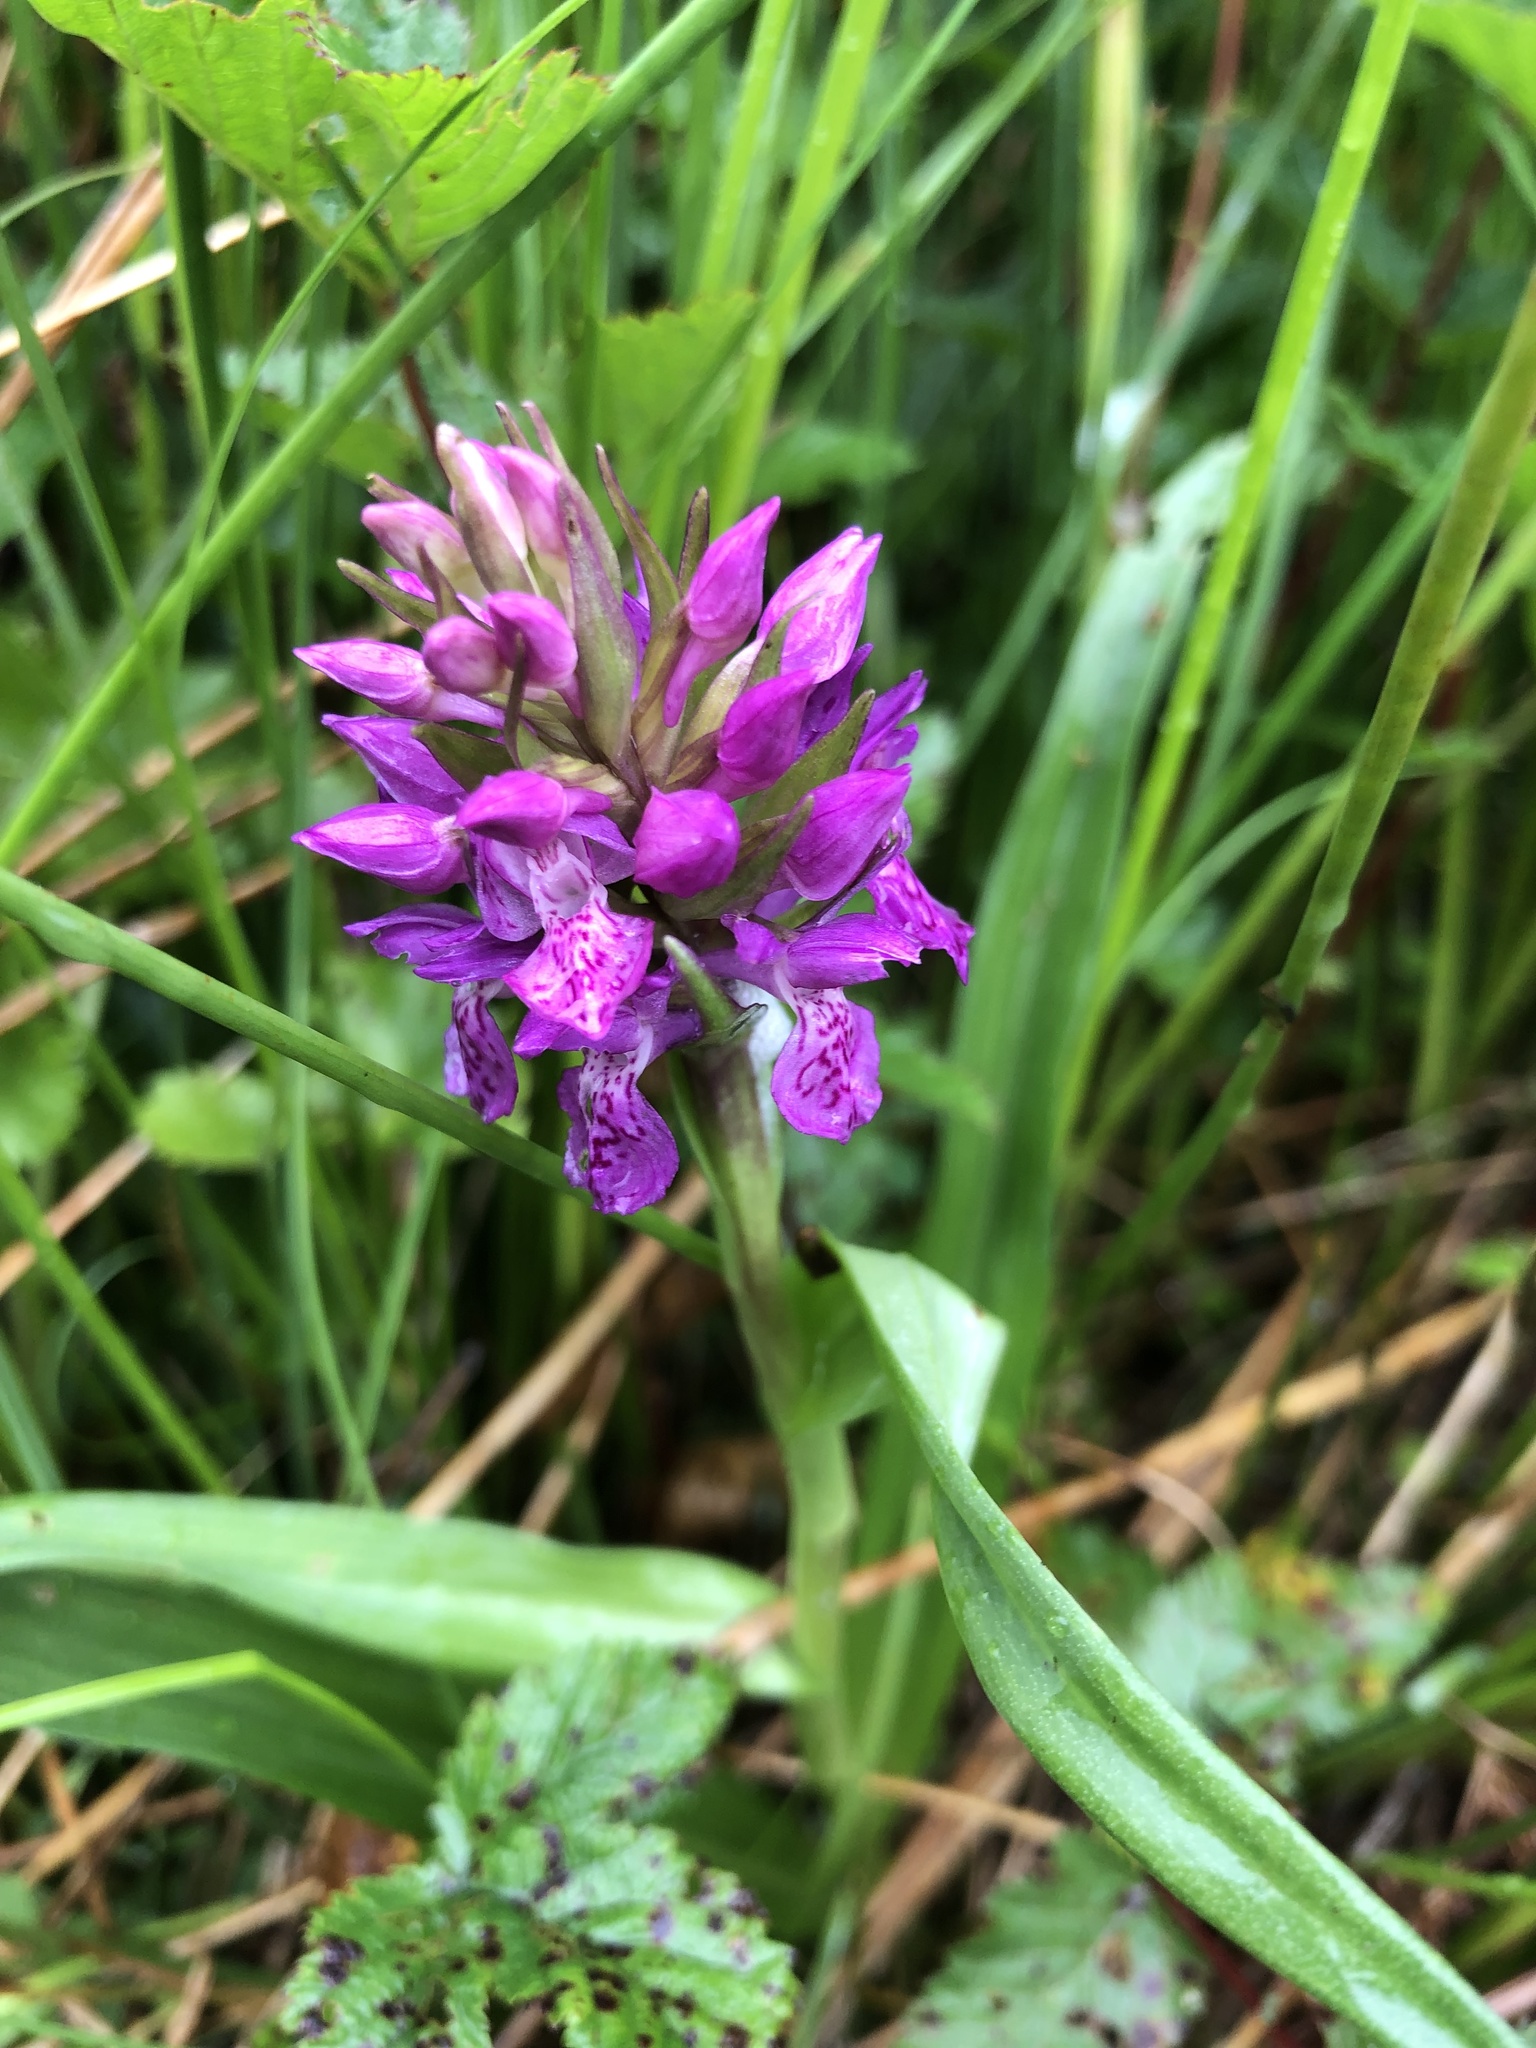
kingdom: Plantae
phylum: Tracheophyta
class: Liliopsida
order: Asparagales
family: Orchidaceae
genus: Dactylorhiza
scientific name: Dactylorhiza majalis
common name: Marsh orchid
